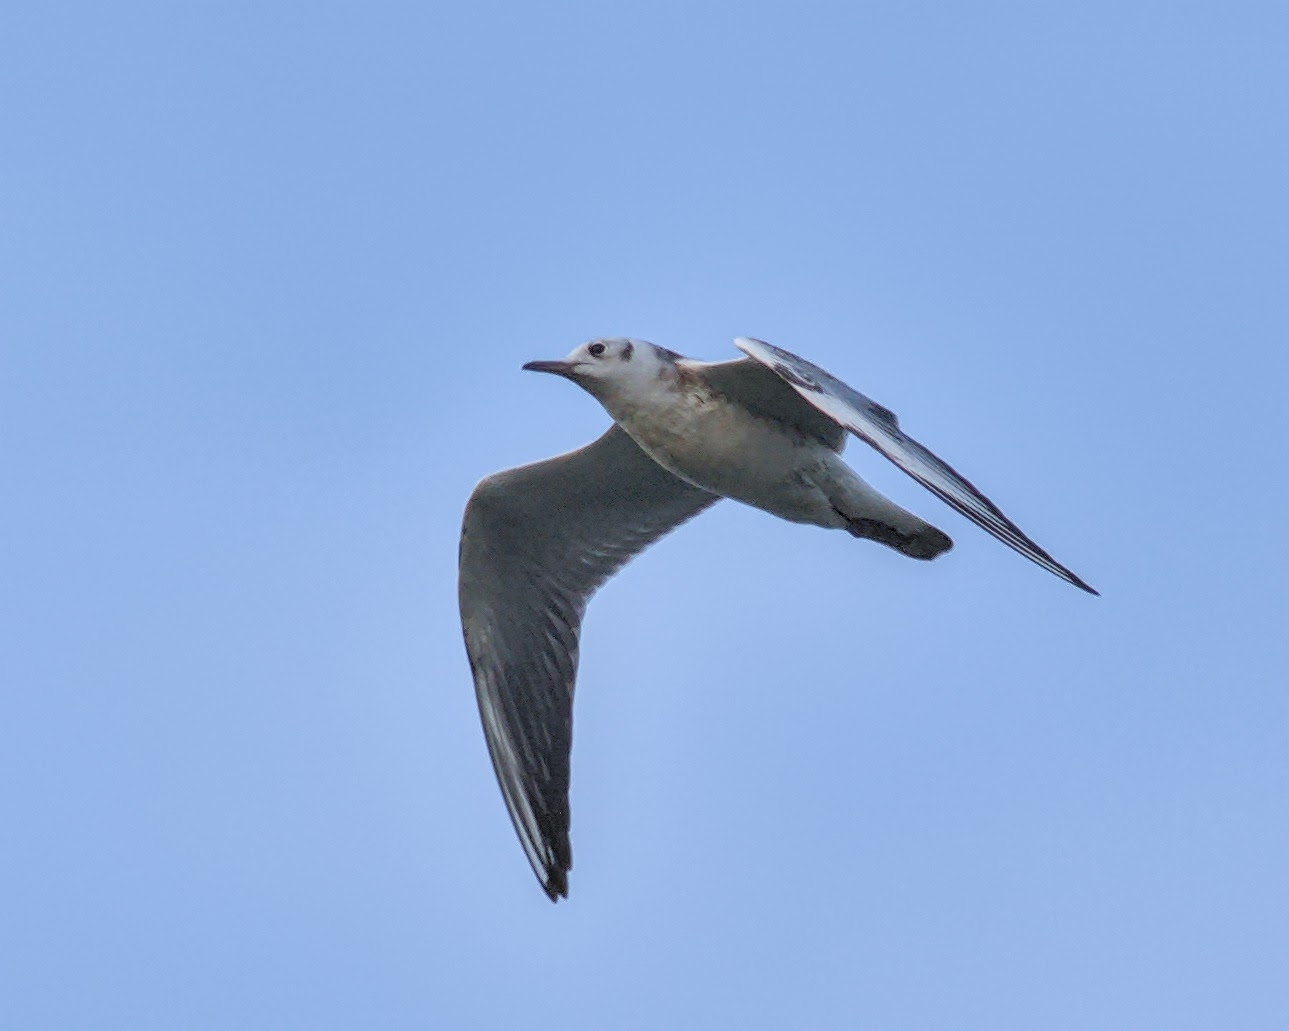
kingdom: Animalia
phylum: Chordata
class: Aves
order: Charadriiformes
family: Laridae
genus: Chroicocephalus
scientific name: Chroicocephalus ridibundus
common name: Black-headed gull
